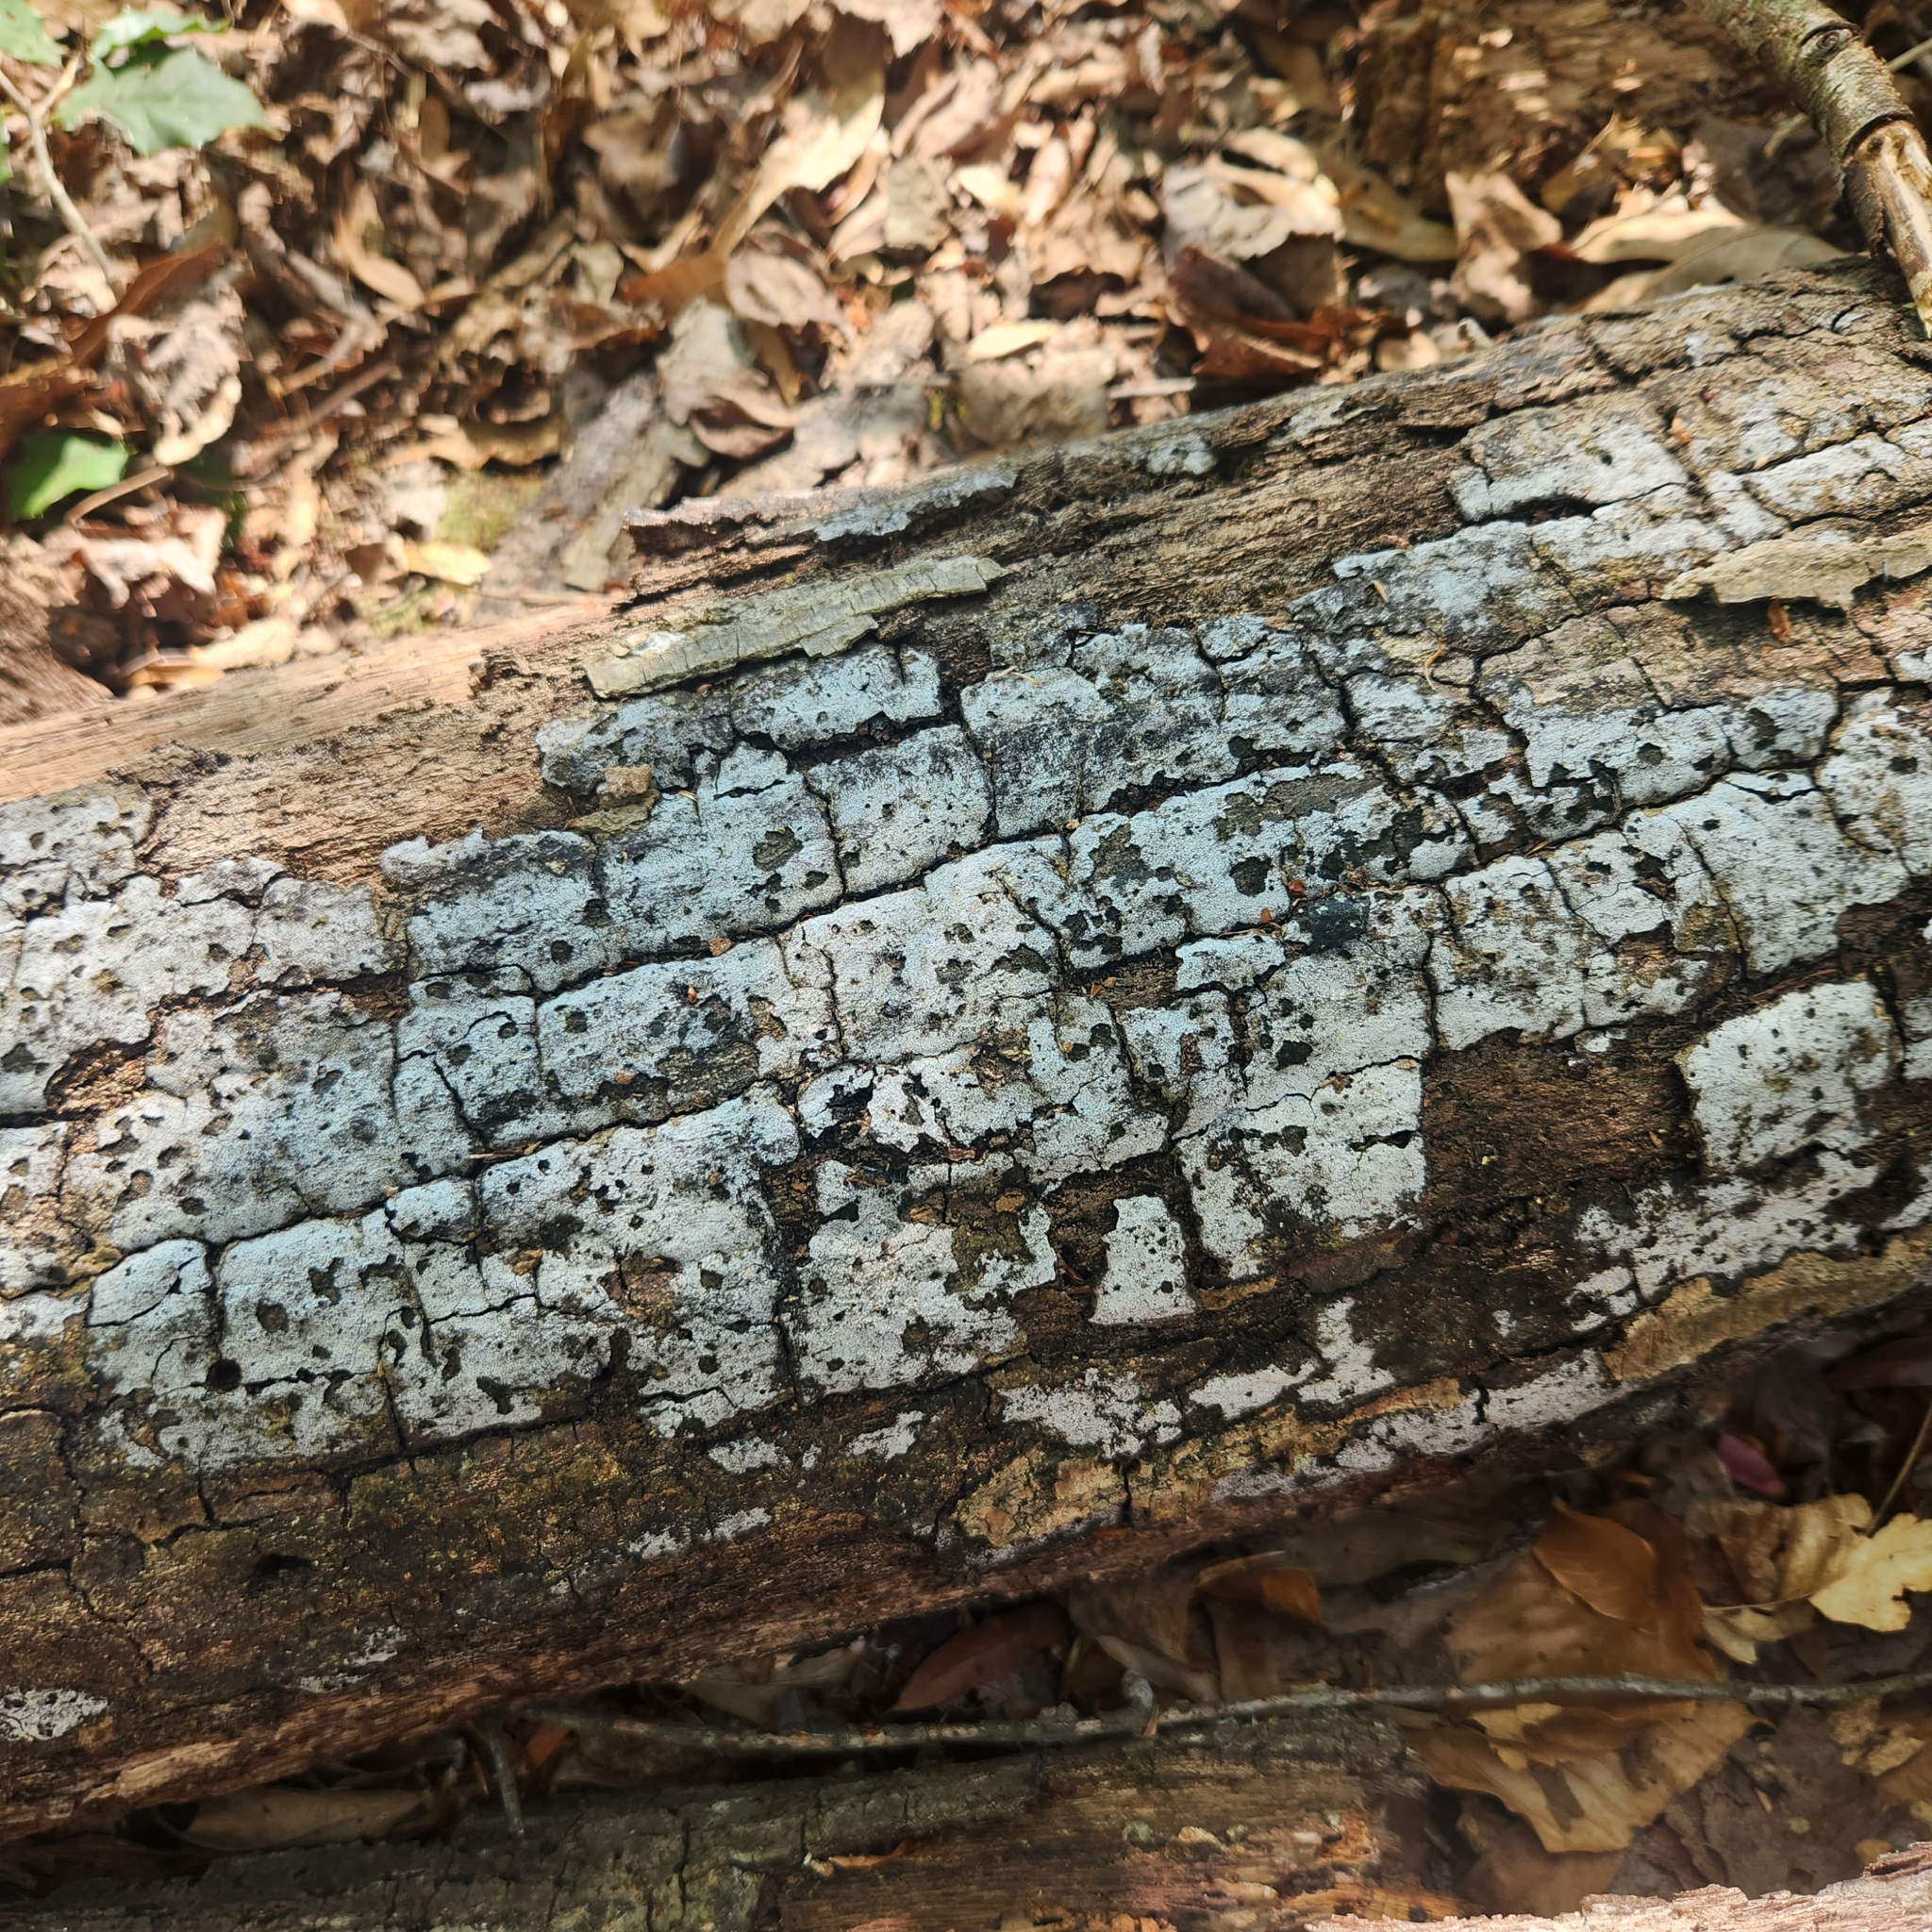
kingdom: Fungi
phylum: Ascomycota
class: Sordariomycetes
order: Xylariales
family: Graphostromataceae
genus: Biscogniauxia
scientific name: Biscogniauxia atropunctata
